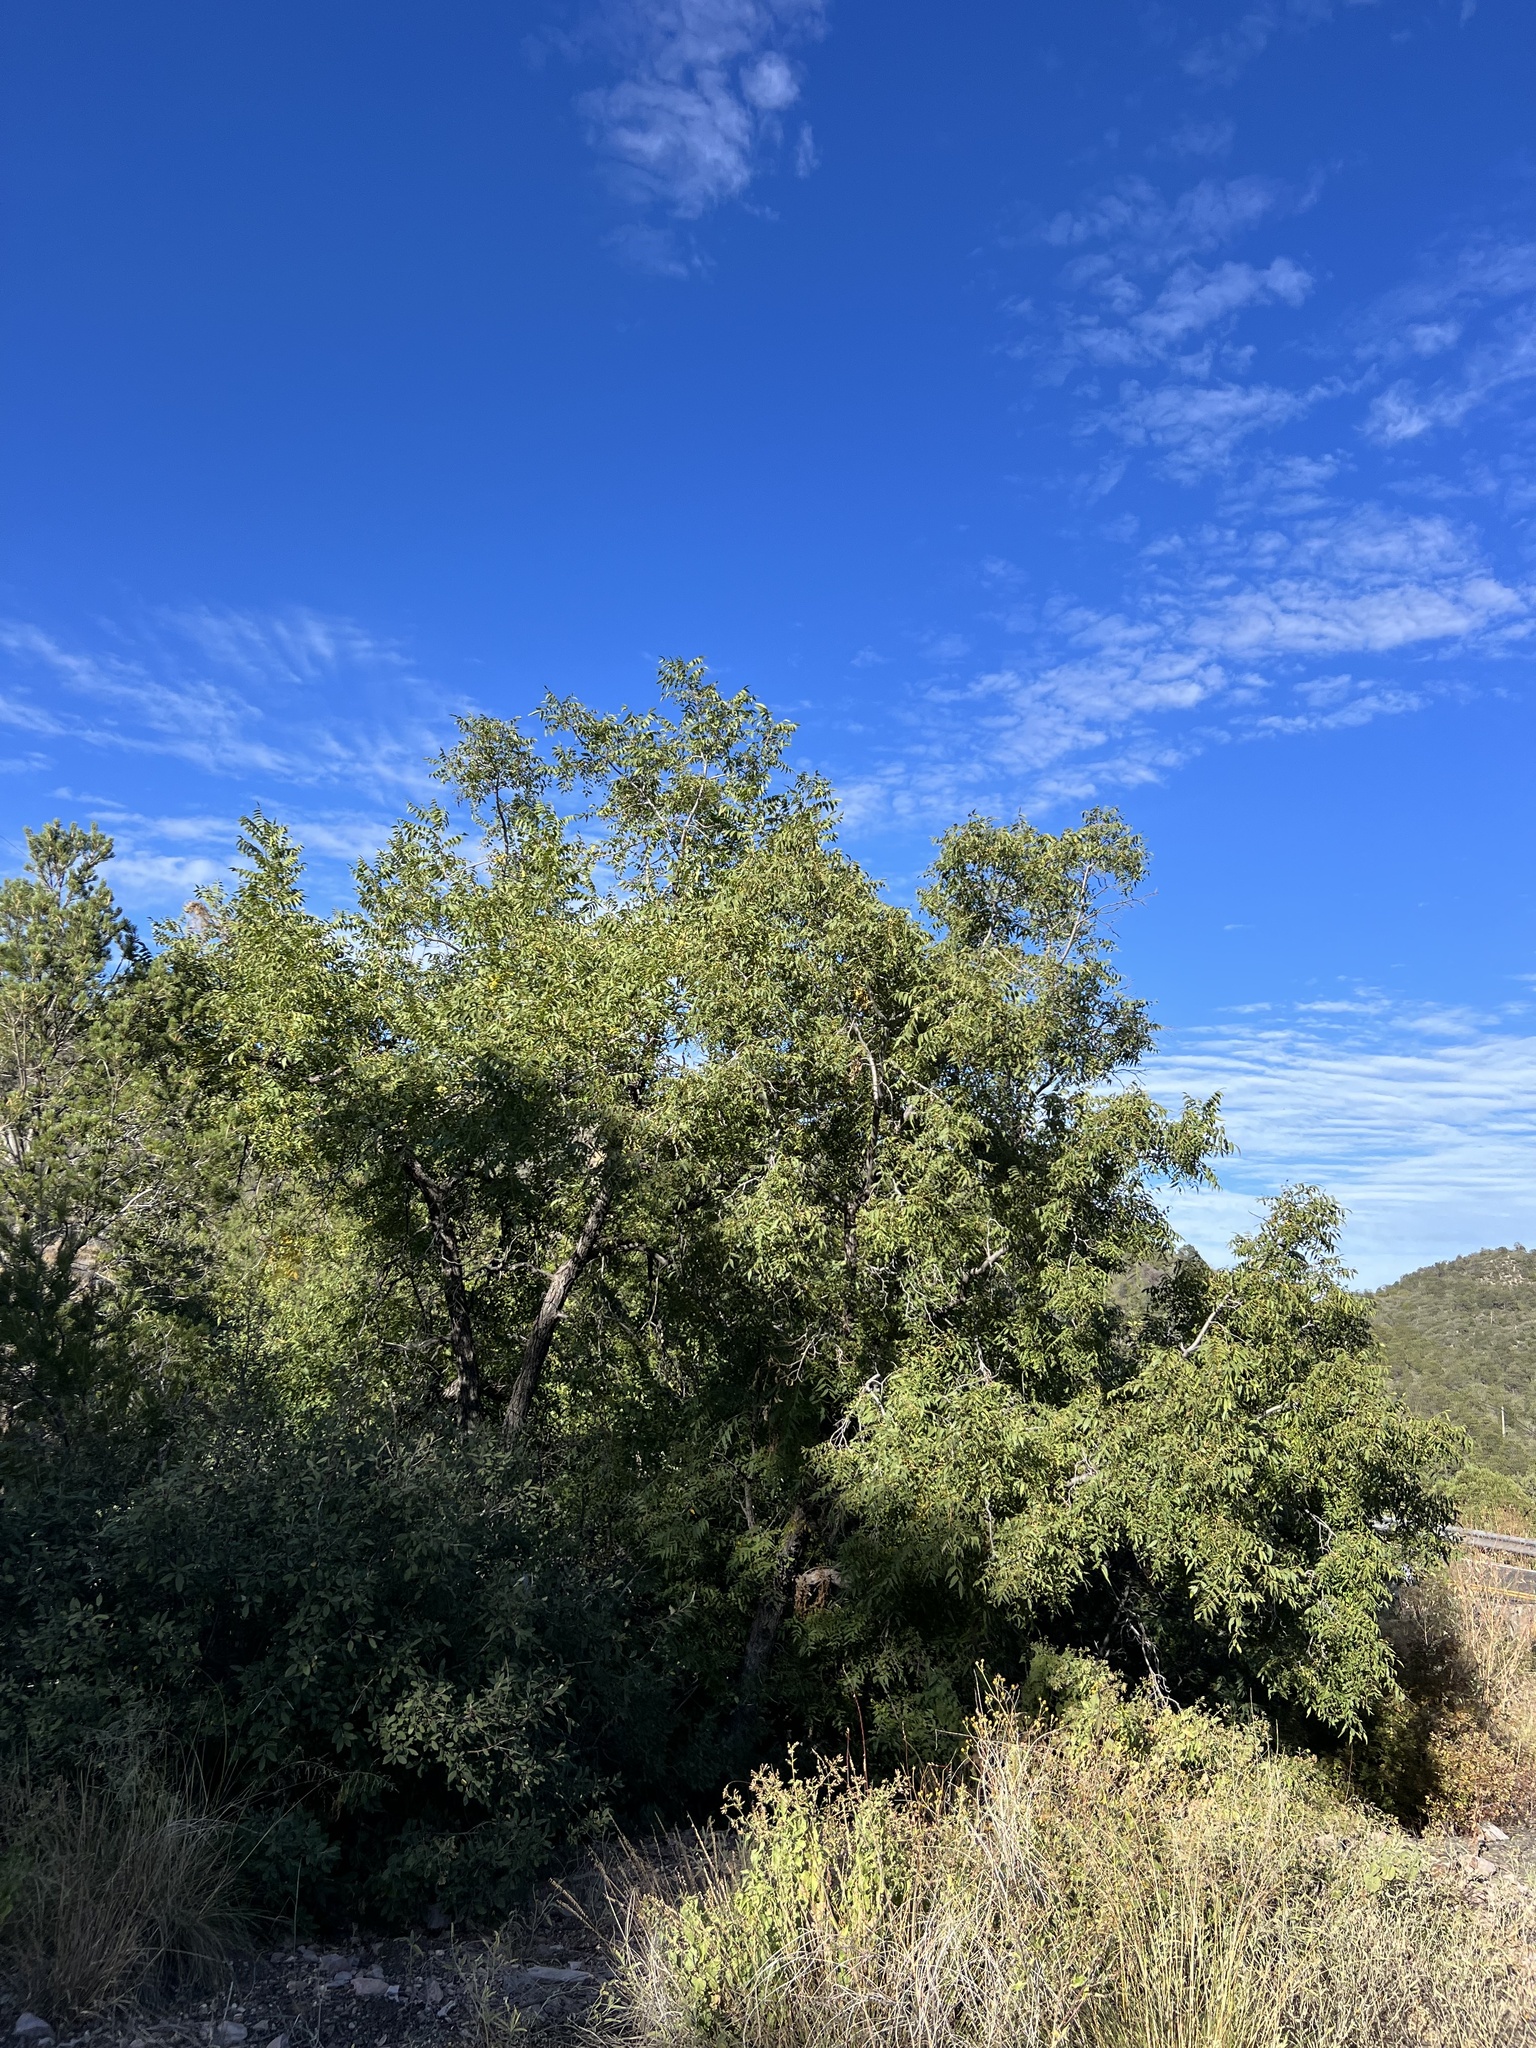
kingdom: Plantae
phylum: Tracheophyta
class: Magnoliopsida
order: Fagales
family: Juglandaceae
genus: Juglans
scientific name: Juglans major
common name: Arizona walnut
